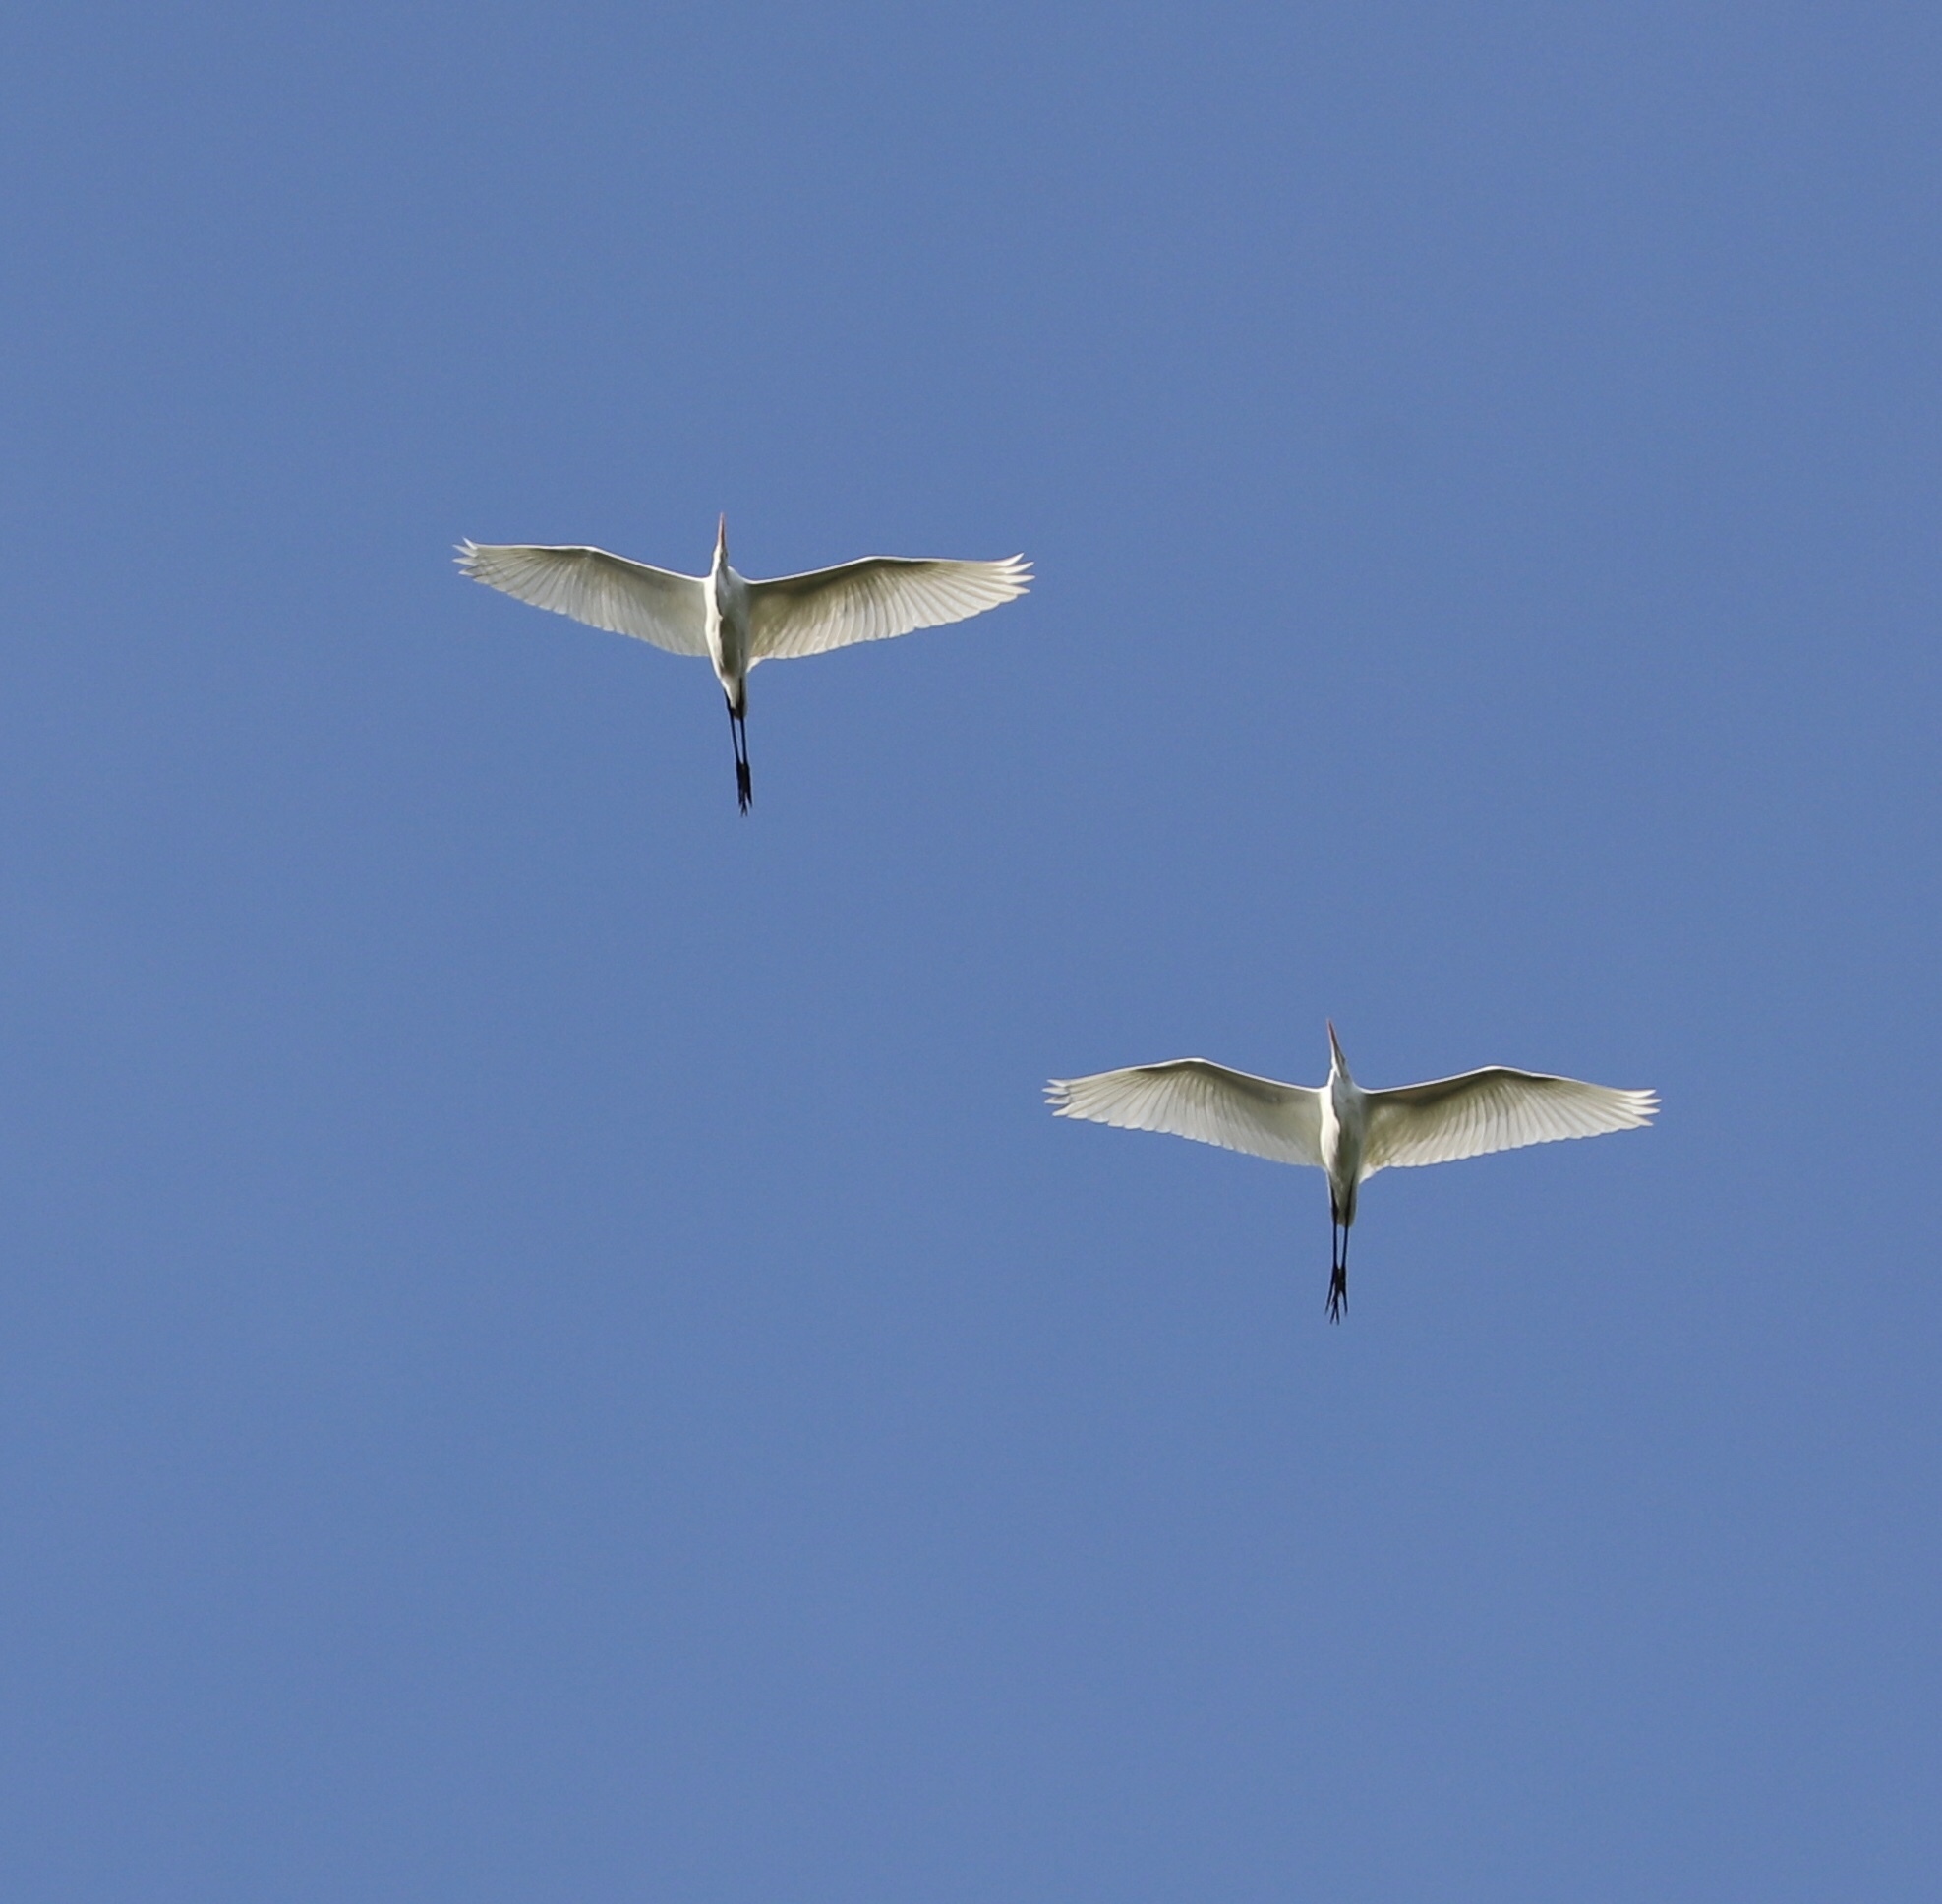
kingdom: Animalia
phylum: Chordata
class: Aves
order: Pelecaniformes
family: Ardeidae
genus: Ardea
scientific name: Ardea alba
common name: Great egret
